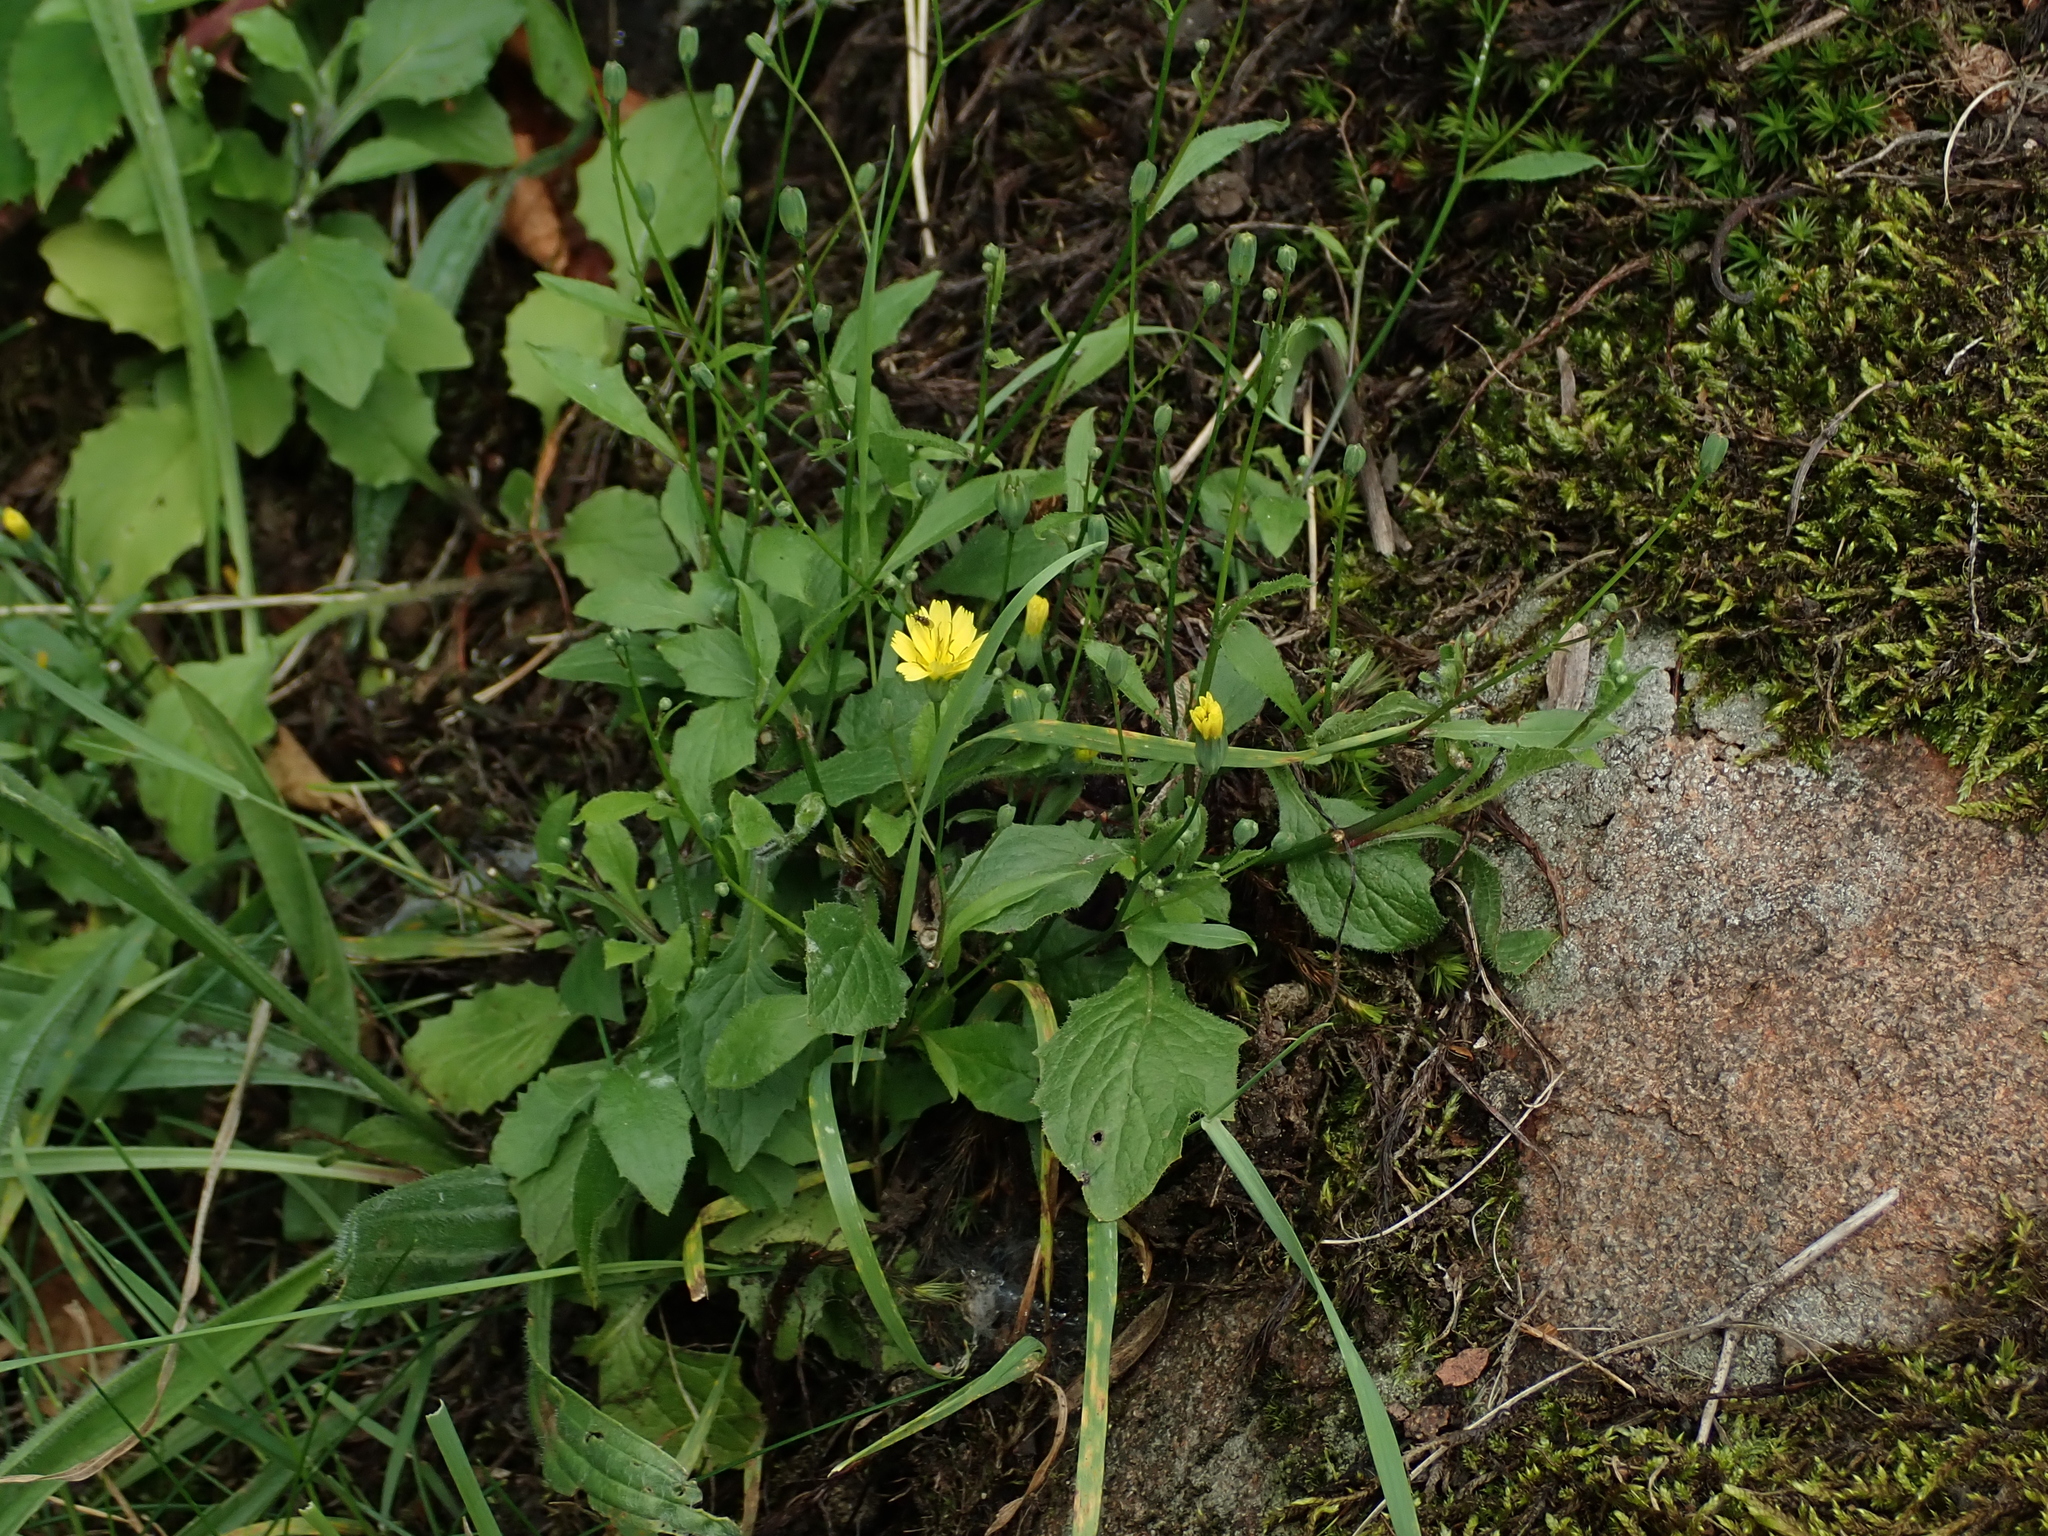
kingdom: Plantae
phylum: Tracheophyta
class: Magnoliopsida
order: Asterales
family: Asteraceae
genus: Lapsana
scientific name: Lapsana communis
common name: Nipplewort
